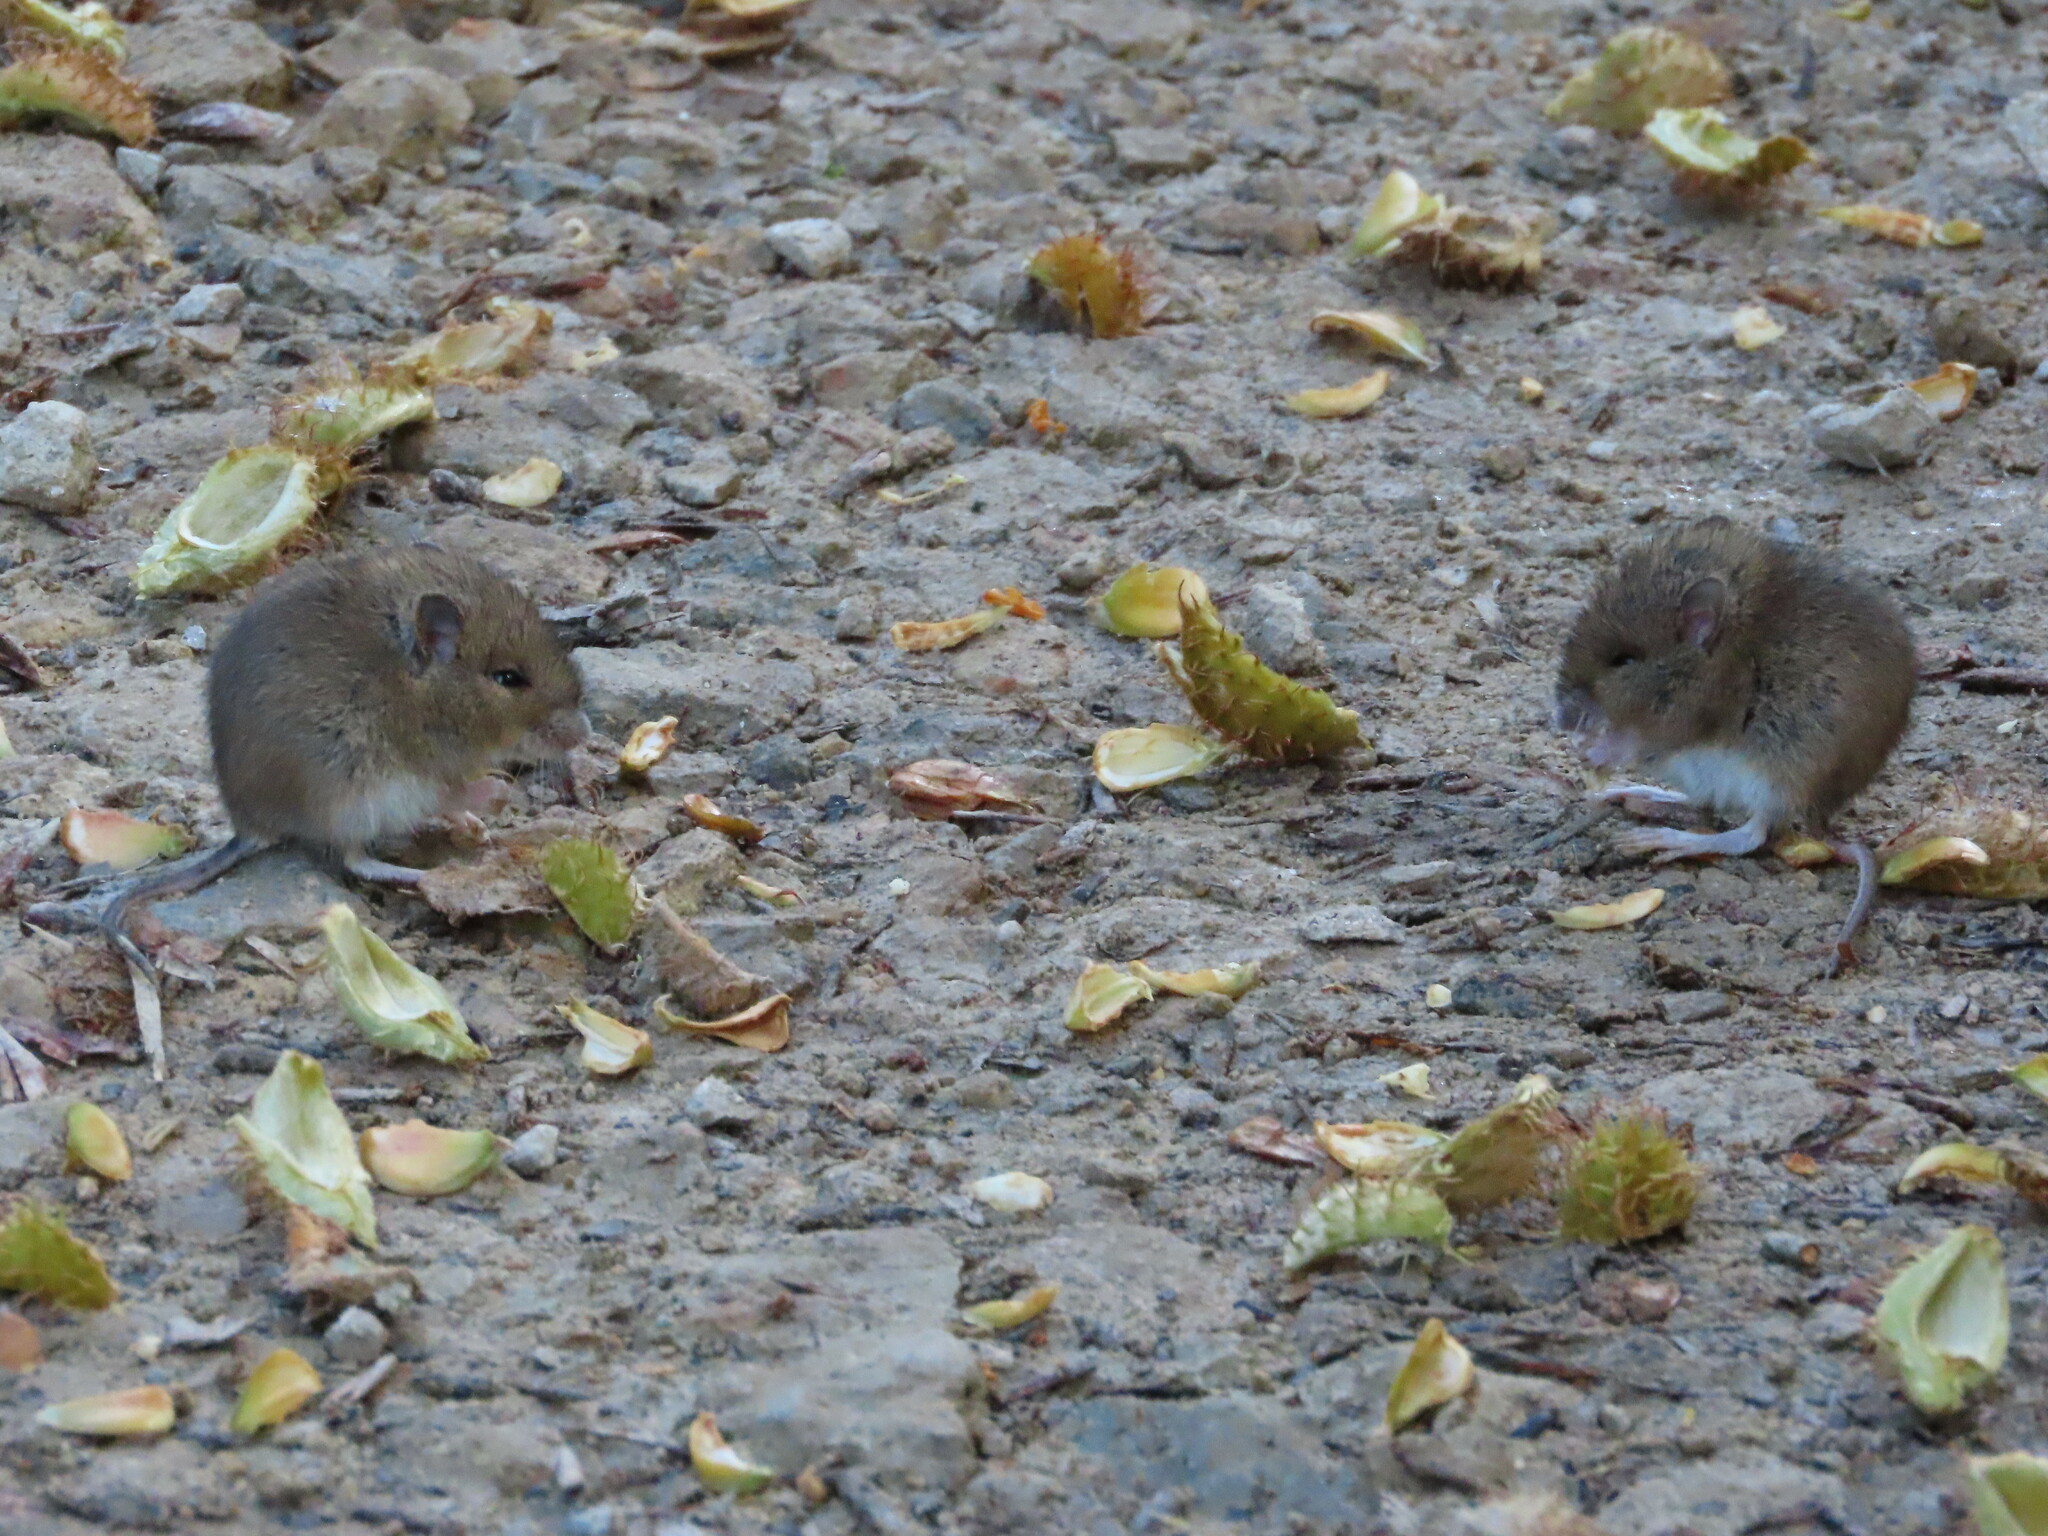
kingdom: Animalia
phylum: Chordata
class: Mammalia
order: Rodentia
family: Muridae
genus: Apodemus
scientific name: Apodemus sylvaticus
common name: Wood mouse
